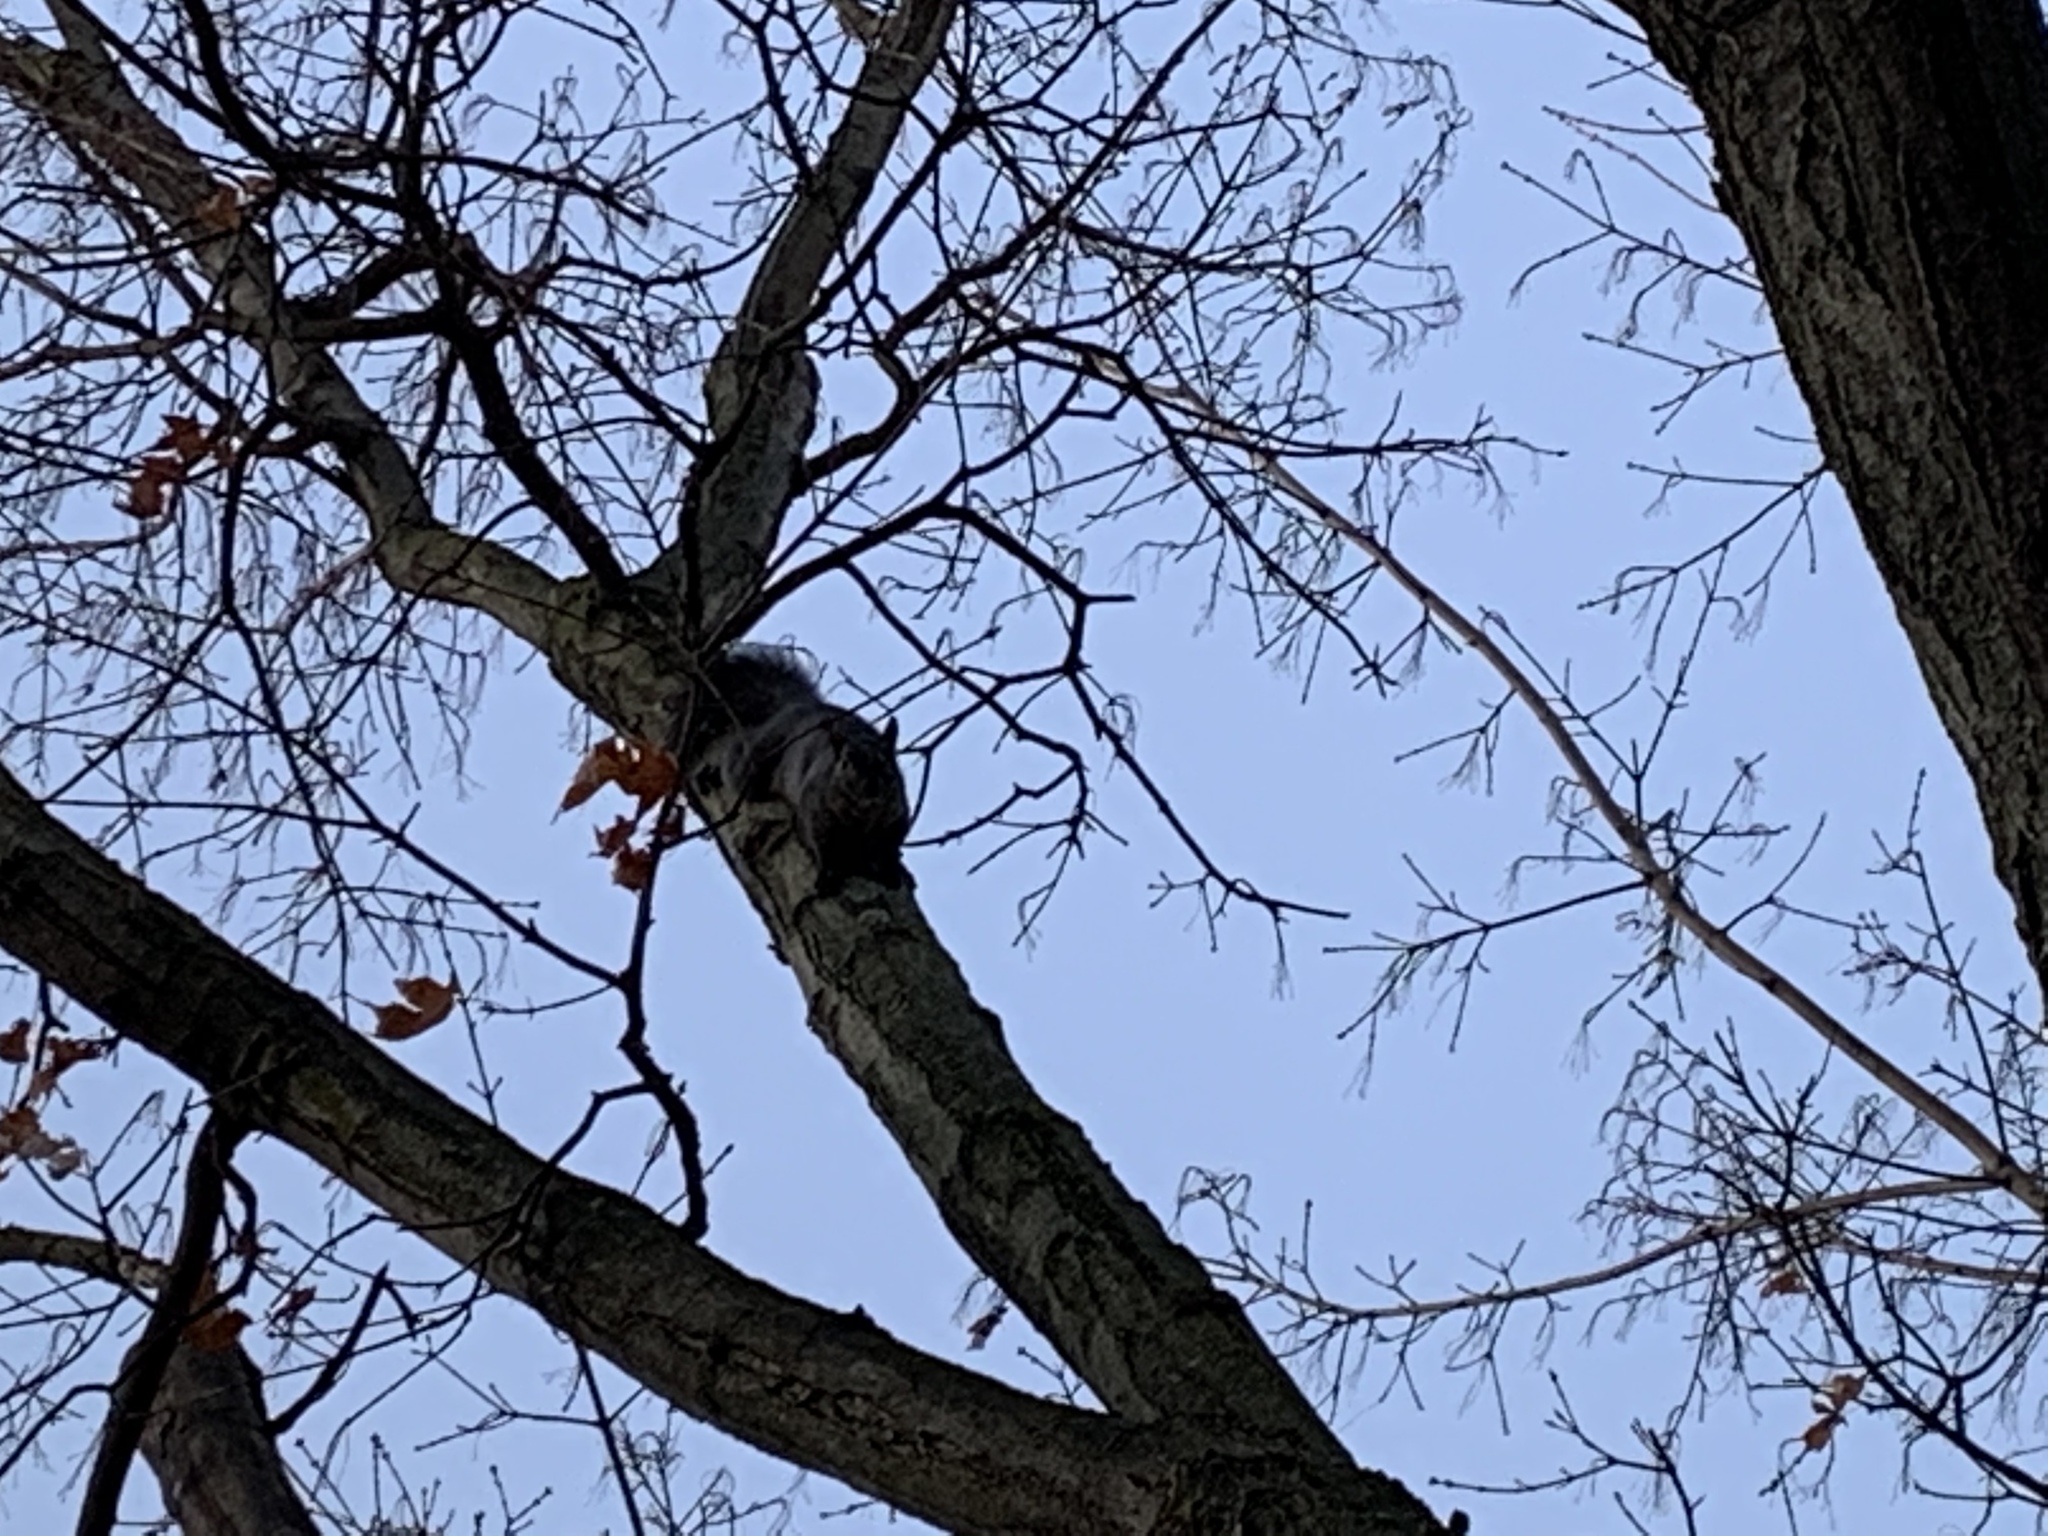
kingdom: Animalia
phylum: Chordata
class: Mammalia
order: Rodentia
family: Sciuridae
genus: Sciurus
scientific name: Sciurus carolinensis
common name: Eastern gray squirrel
